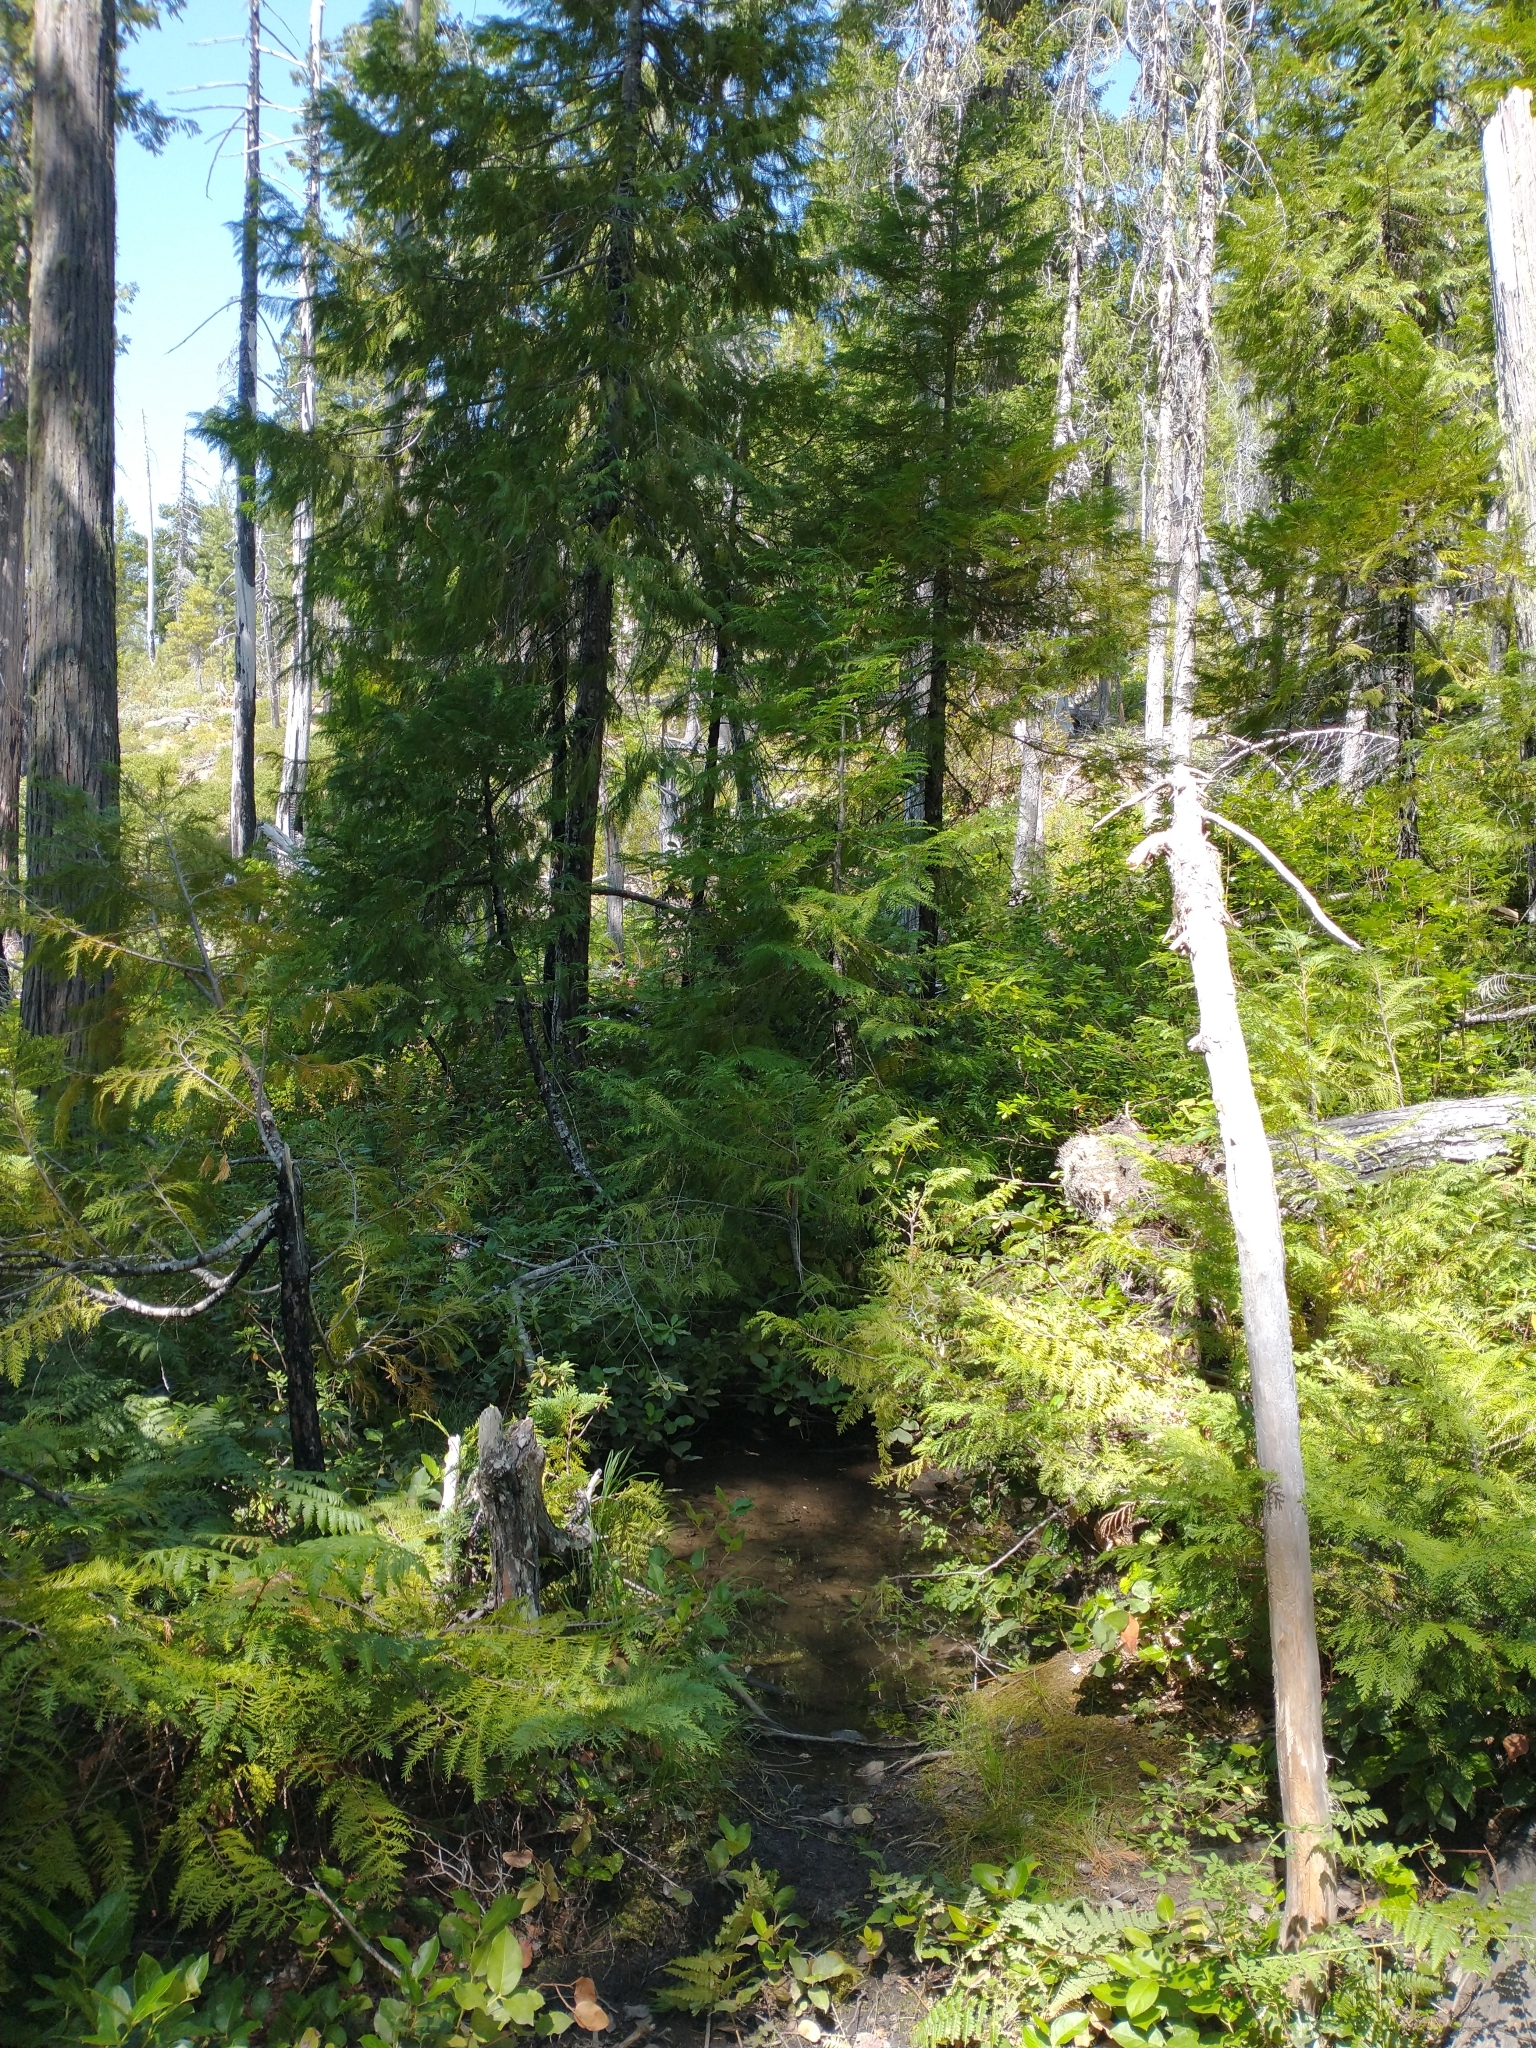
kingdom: Plantae
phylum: Tracheophyta
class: Pinopsida
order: Pinales
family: Cupressaceae
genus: Chamaecyparis
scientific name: Chamaecyparis lawsoniana
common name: Lawson's cypress
